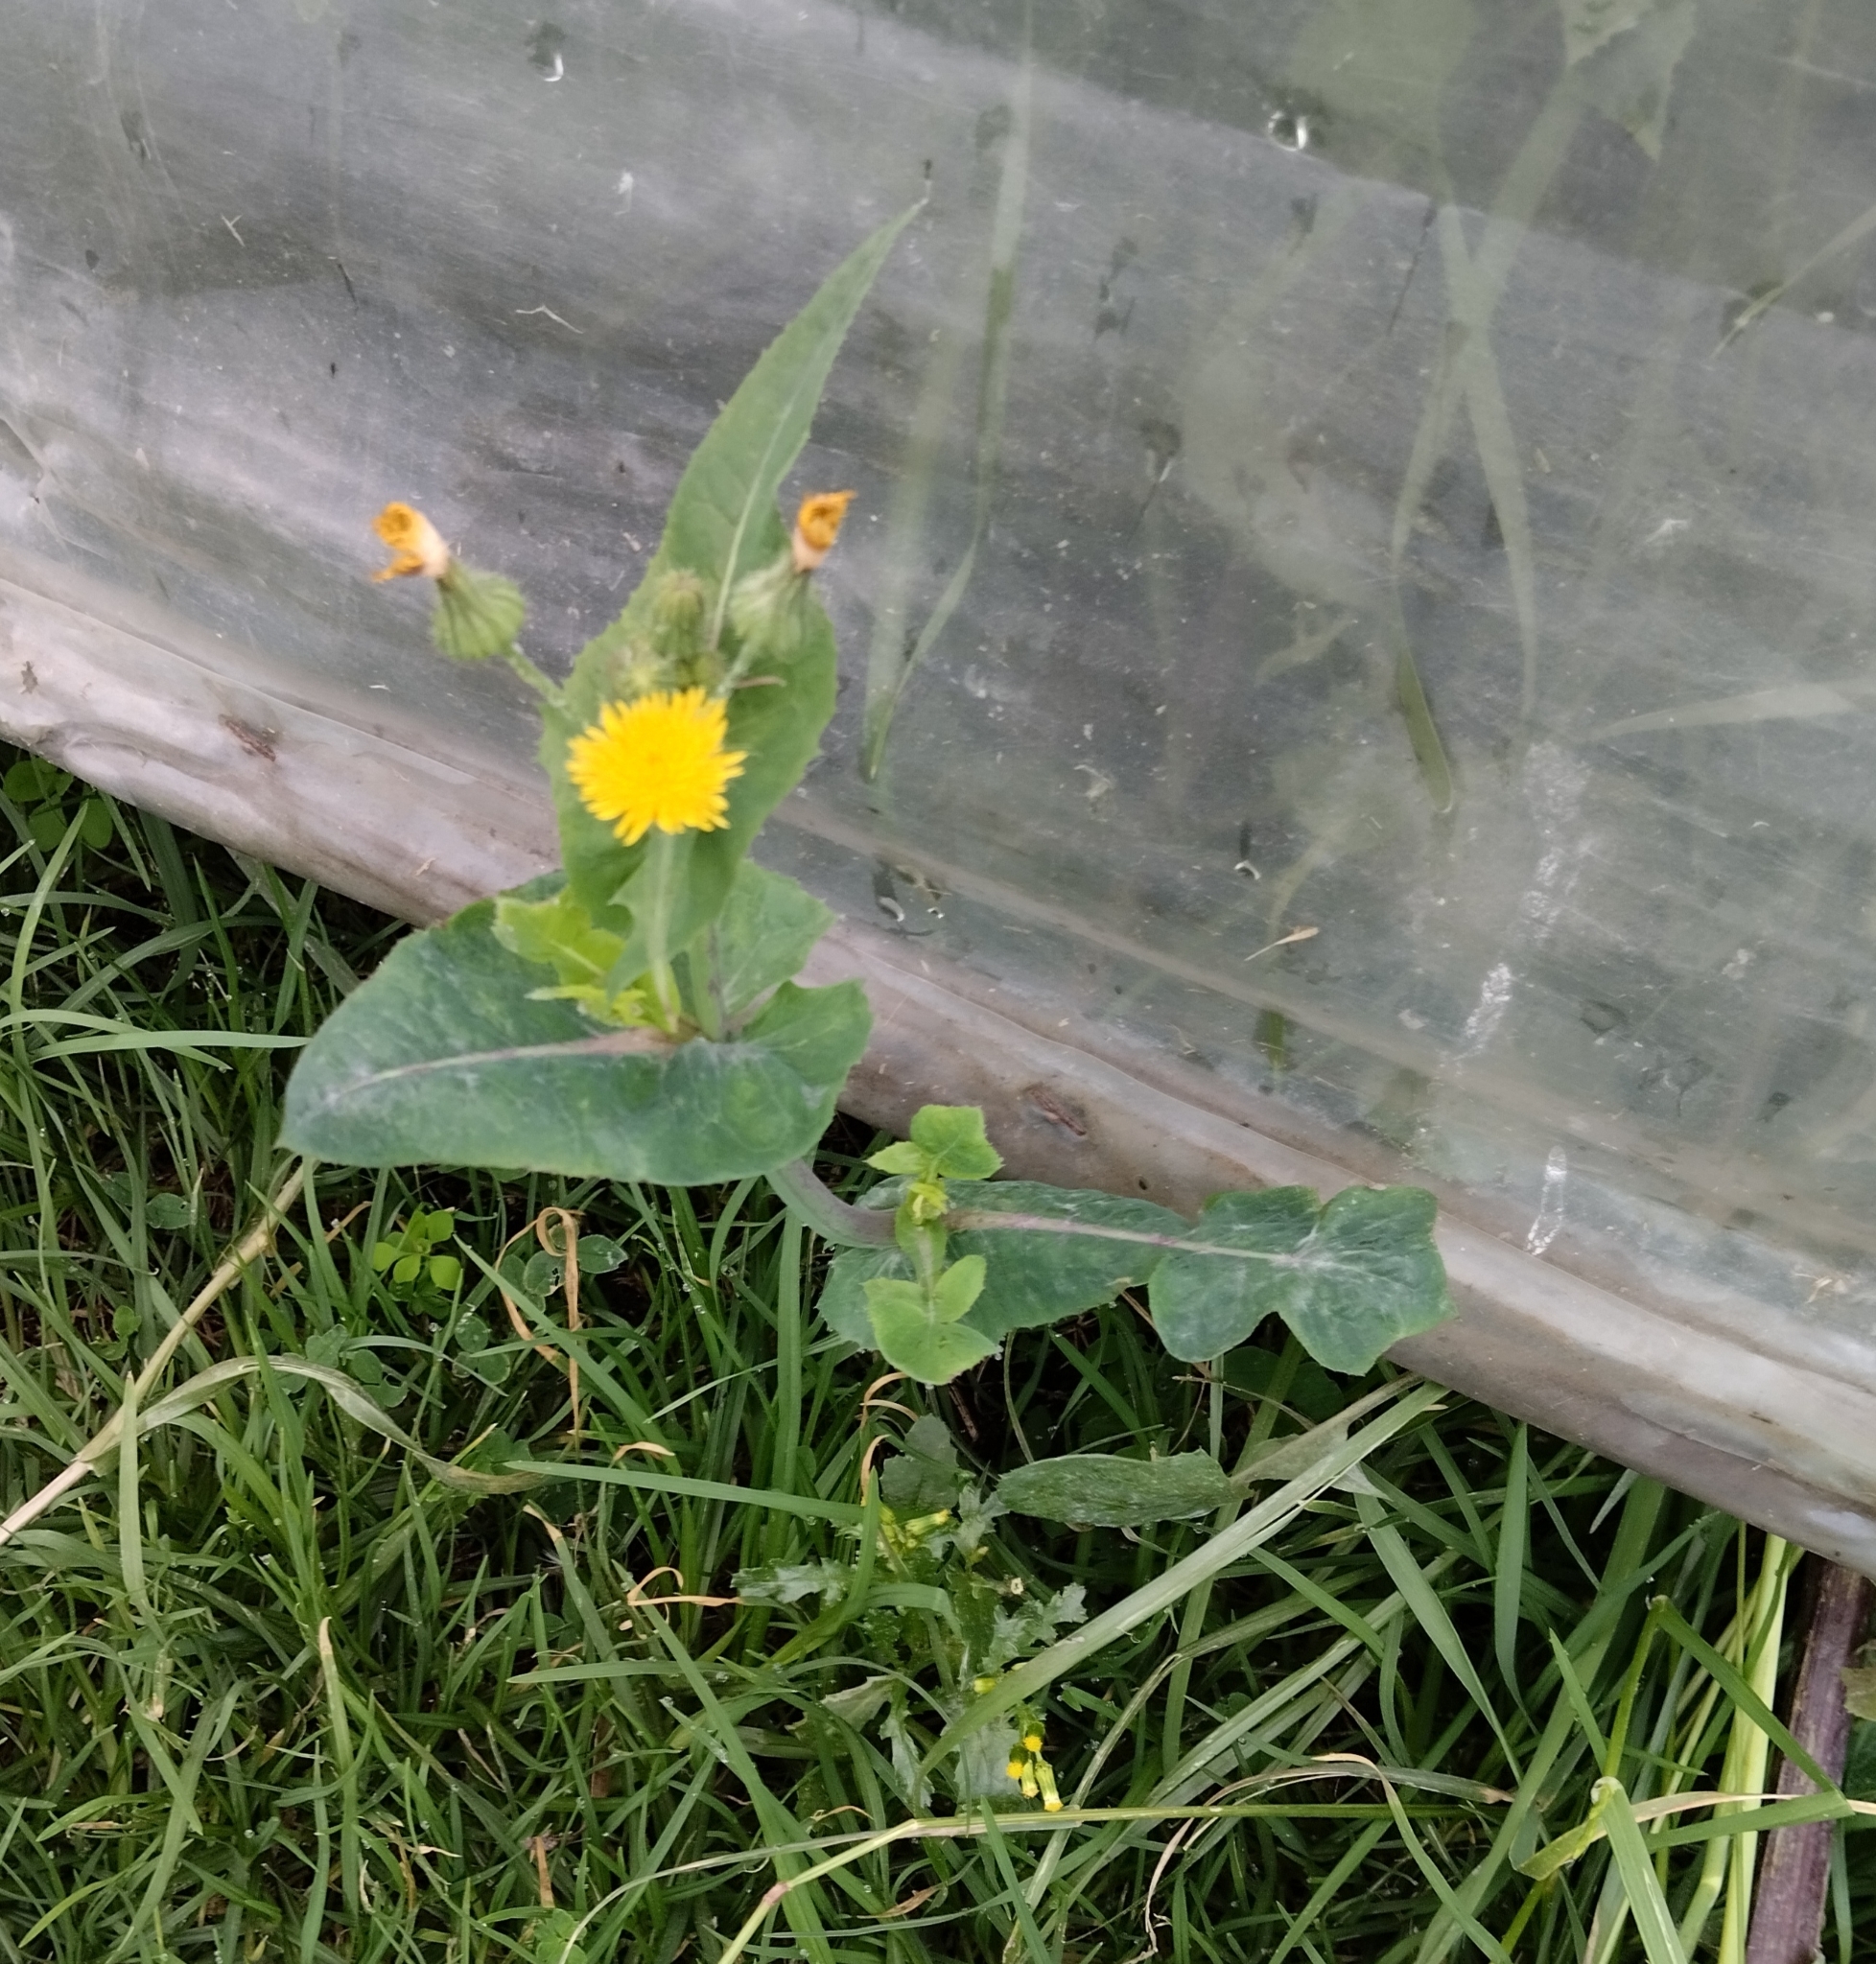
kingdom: Plantae
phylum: Tracheophyta
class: Magnoliopsida
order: Asterales
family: Asteraceae
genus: Sonchus
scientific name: Sonchus oleraceus
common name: Common sowthistle
